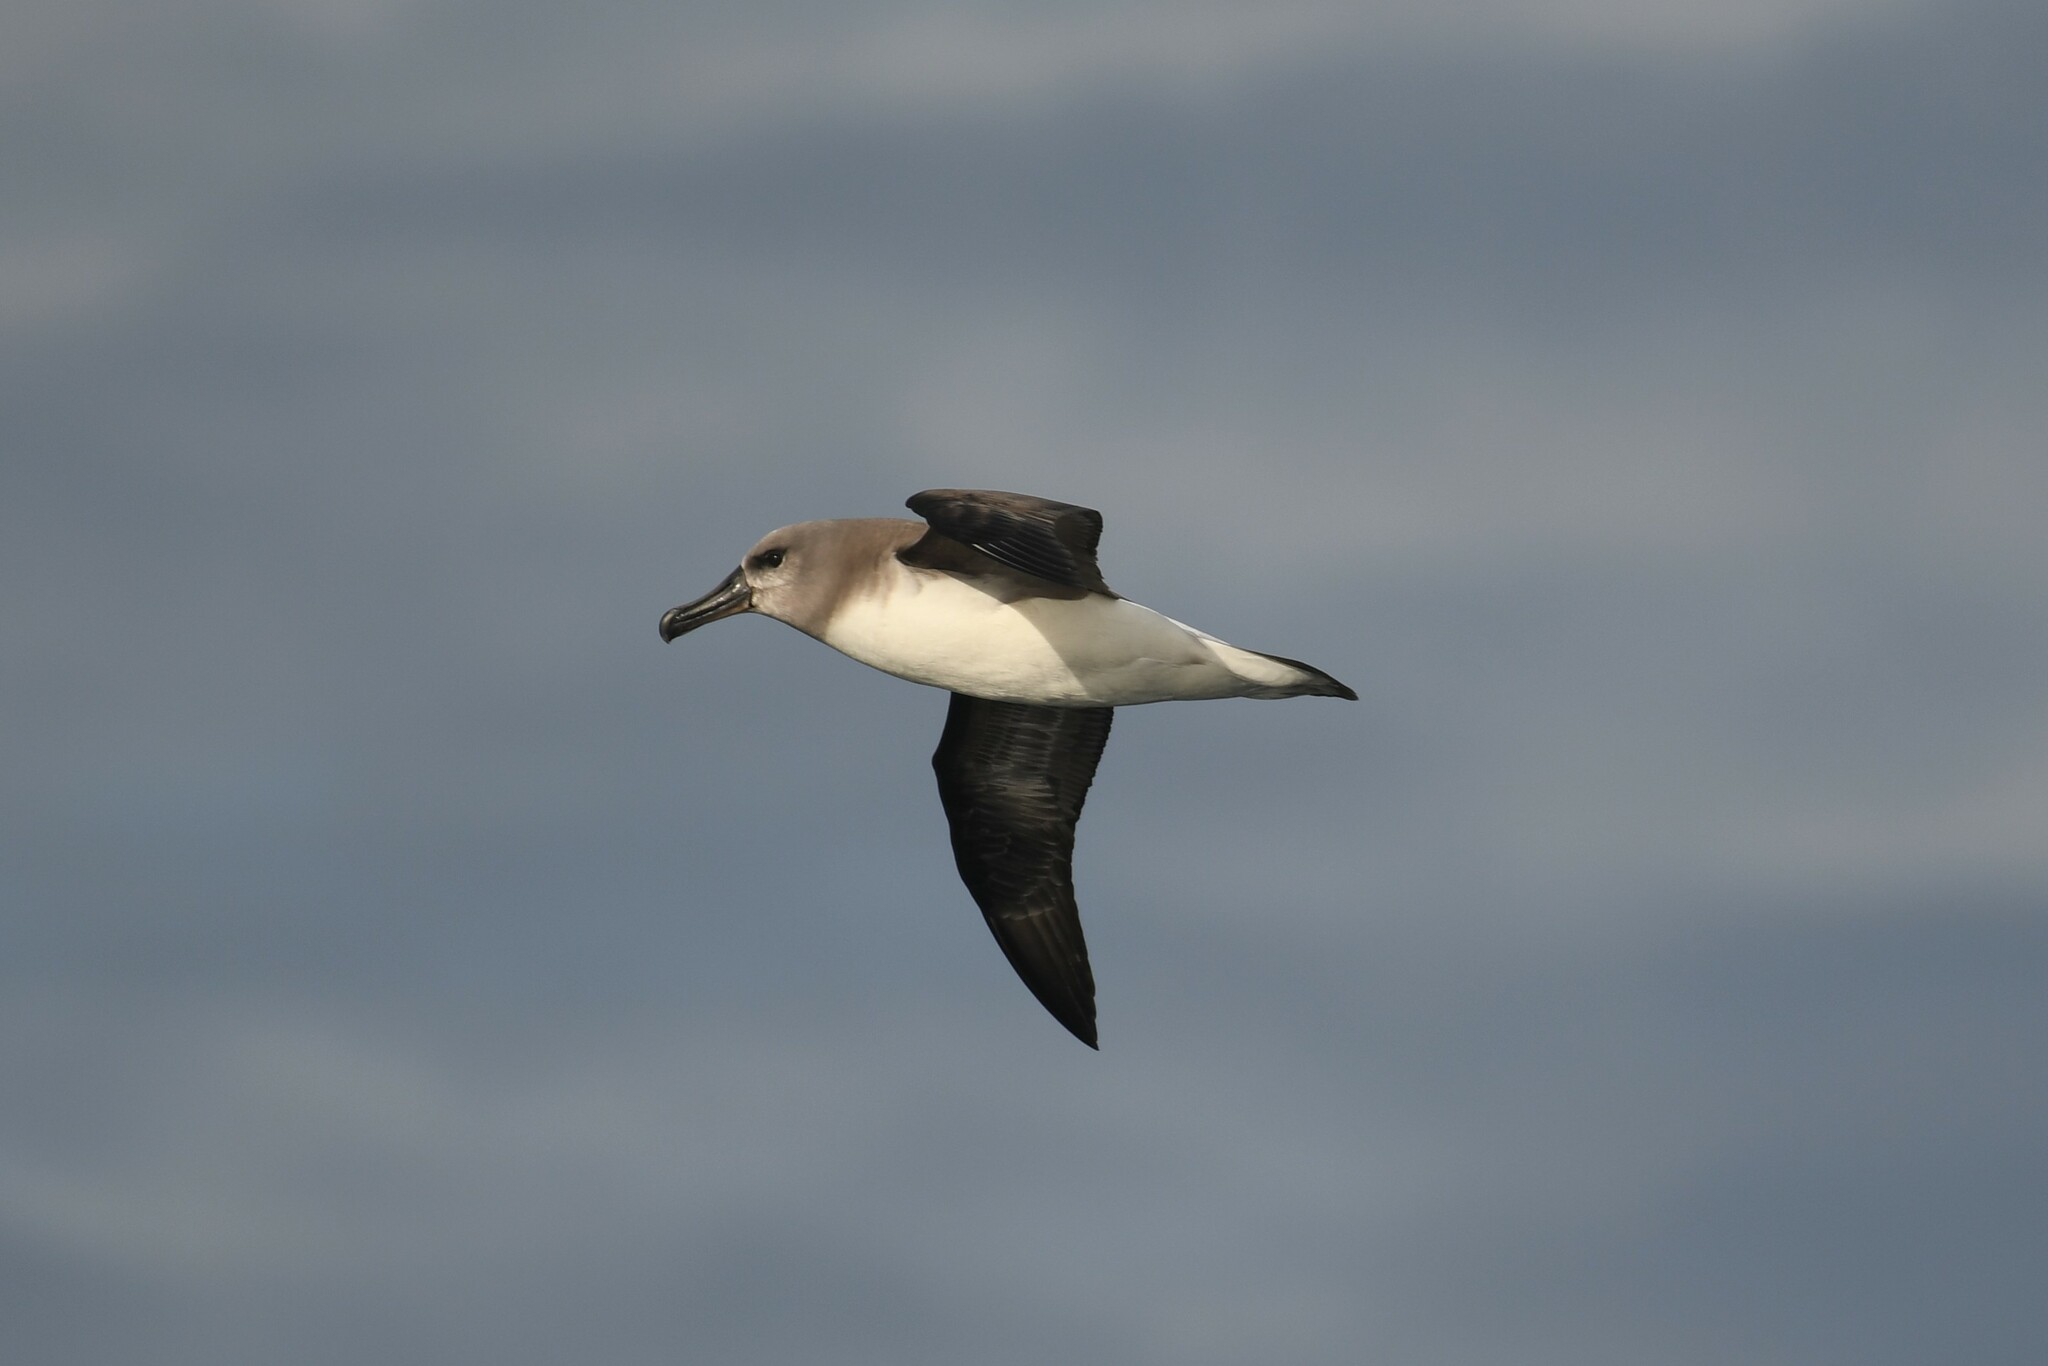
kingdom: Animalia
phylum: Chordata
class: Aves
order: Procellariiformes
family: Diomedeidae
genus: Thalassarche
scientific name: Thalassarche chrysostoma
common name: Grey-headed albatross
